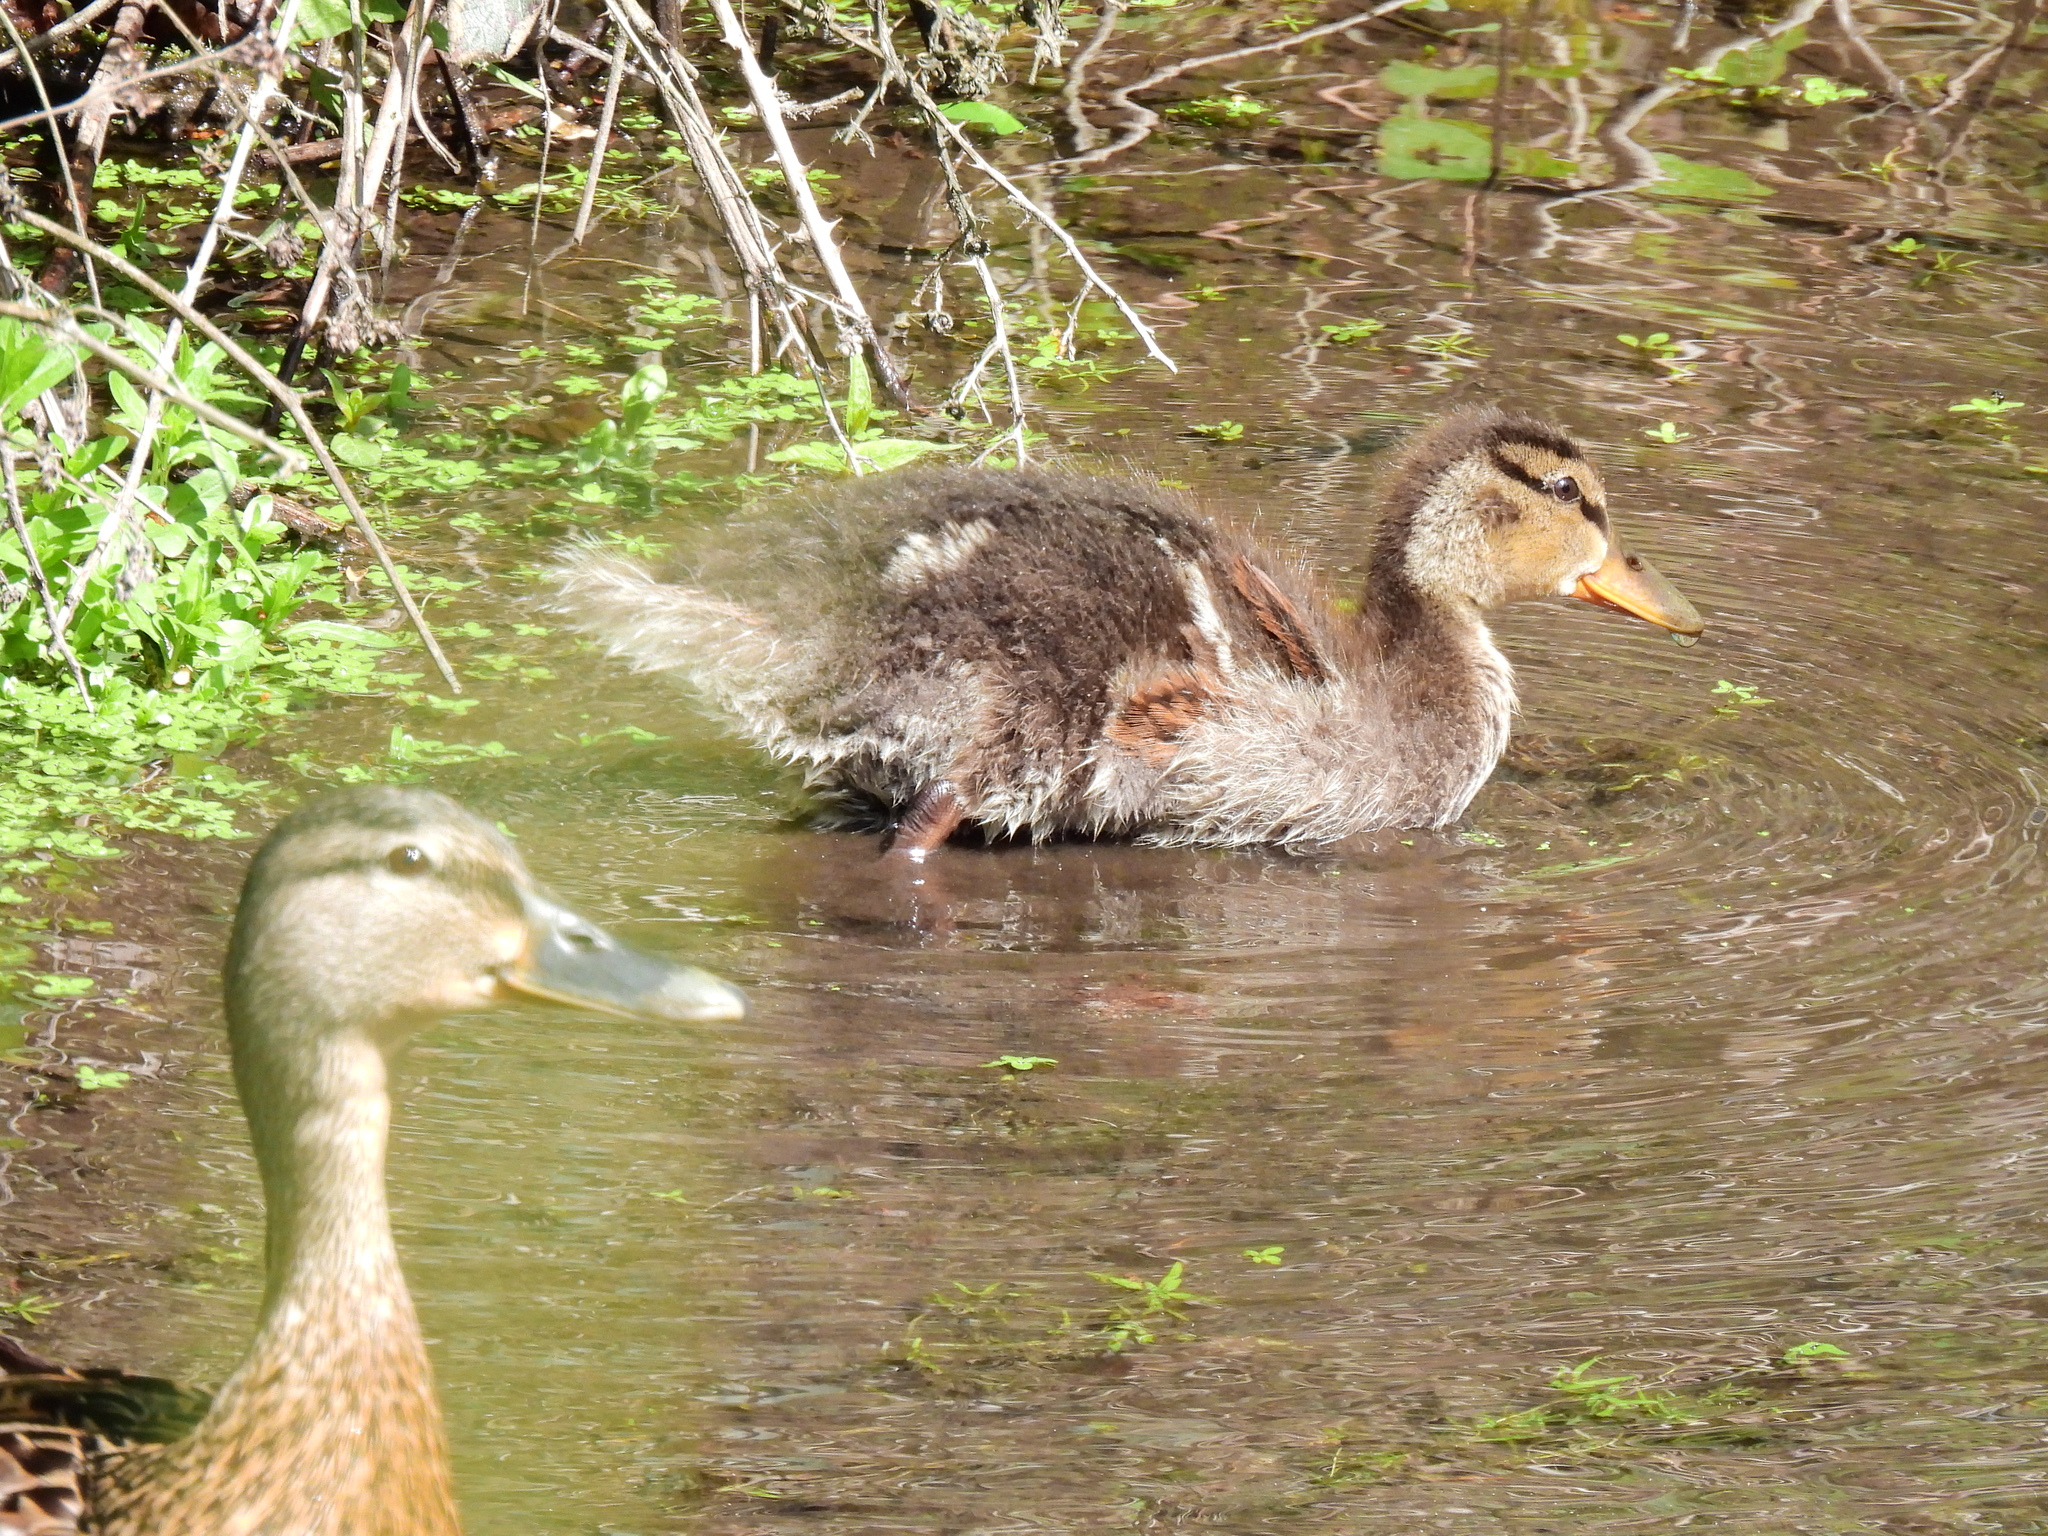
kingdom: Animalia
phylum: Chordata
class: Aves
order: Anseriformes
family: Anatidae
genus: Anas
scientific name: Anas platyrhynchos
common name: Mallard
